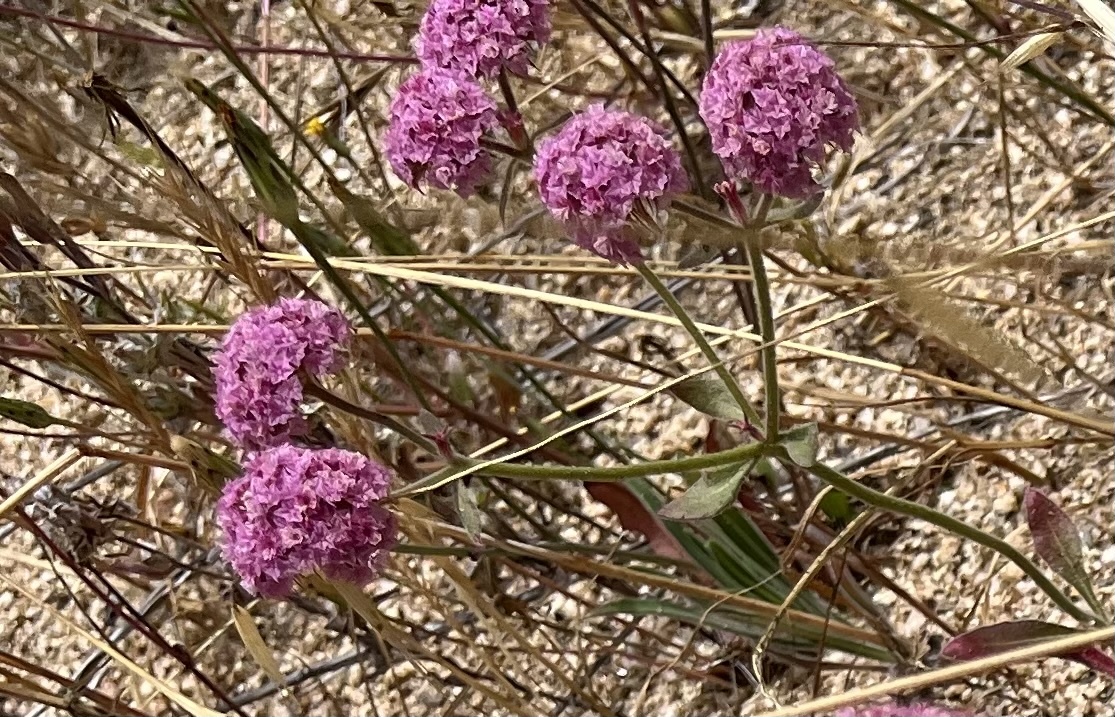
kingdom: Plantae
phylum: Tracheophyta
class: Magnoliopsida
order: Caryophyllales
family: Polygonaceae
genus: Chorizanthe
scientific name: Chorizanthe douglasii
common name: Douglas's spineflower
